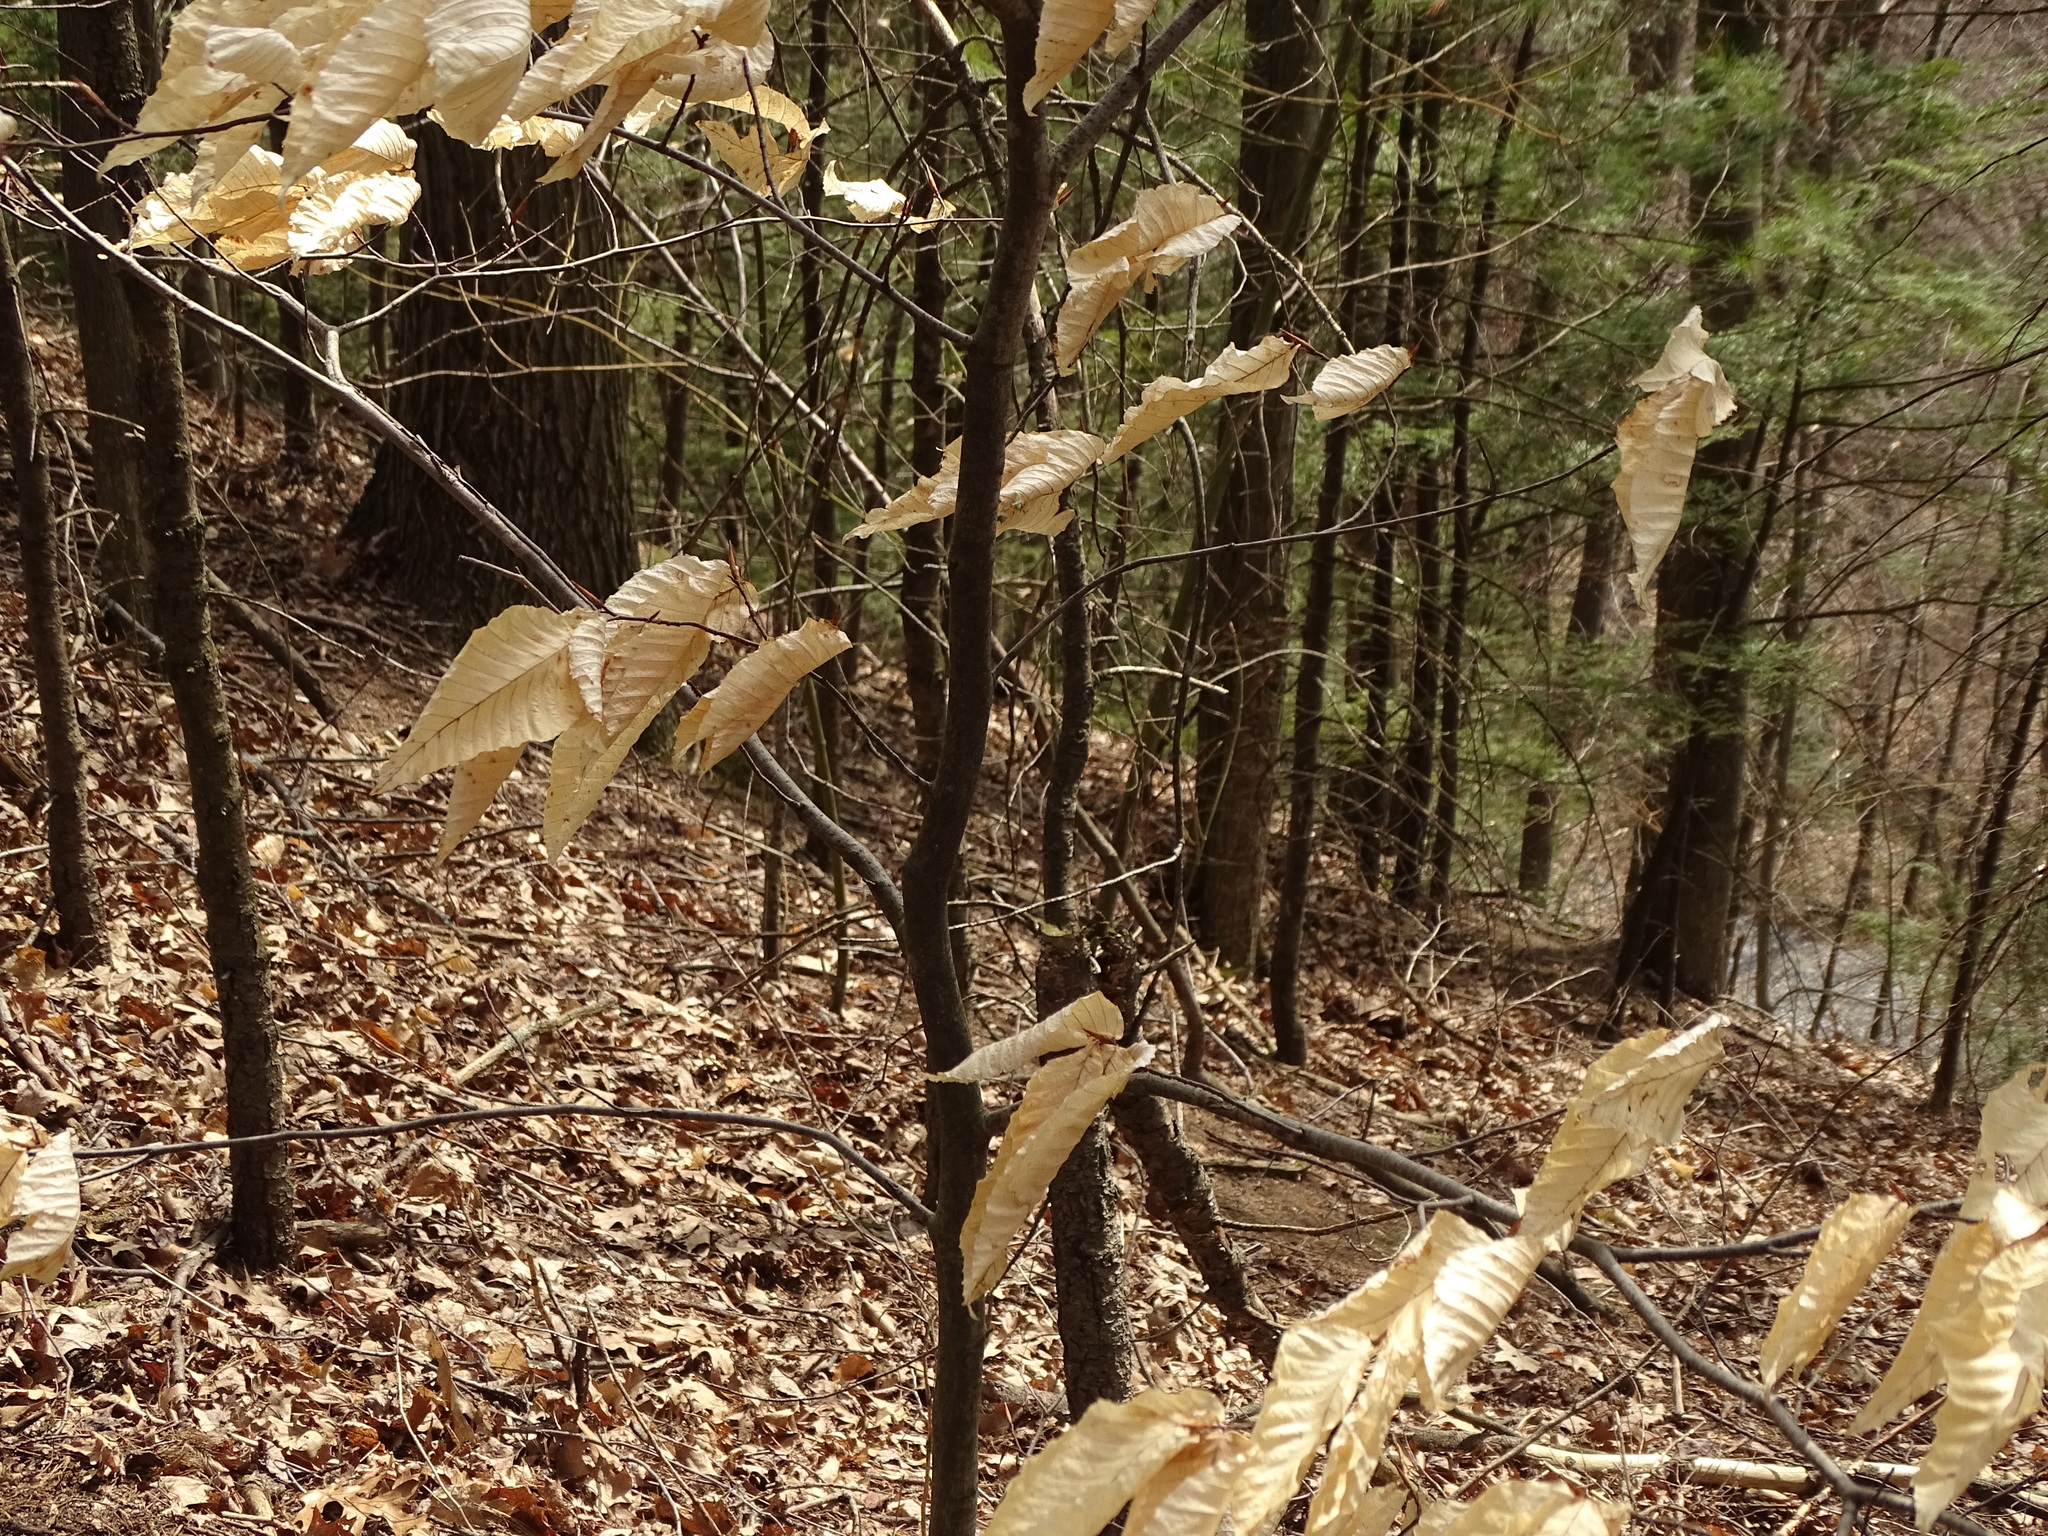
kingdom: Plantae
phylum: Tracheophyta
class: Magnoliopsida
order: Fagales
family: Fagaceae
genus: Fagus
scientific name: Fagus grandifolia
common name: American beech
